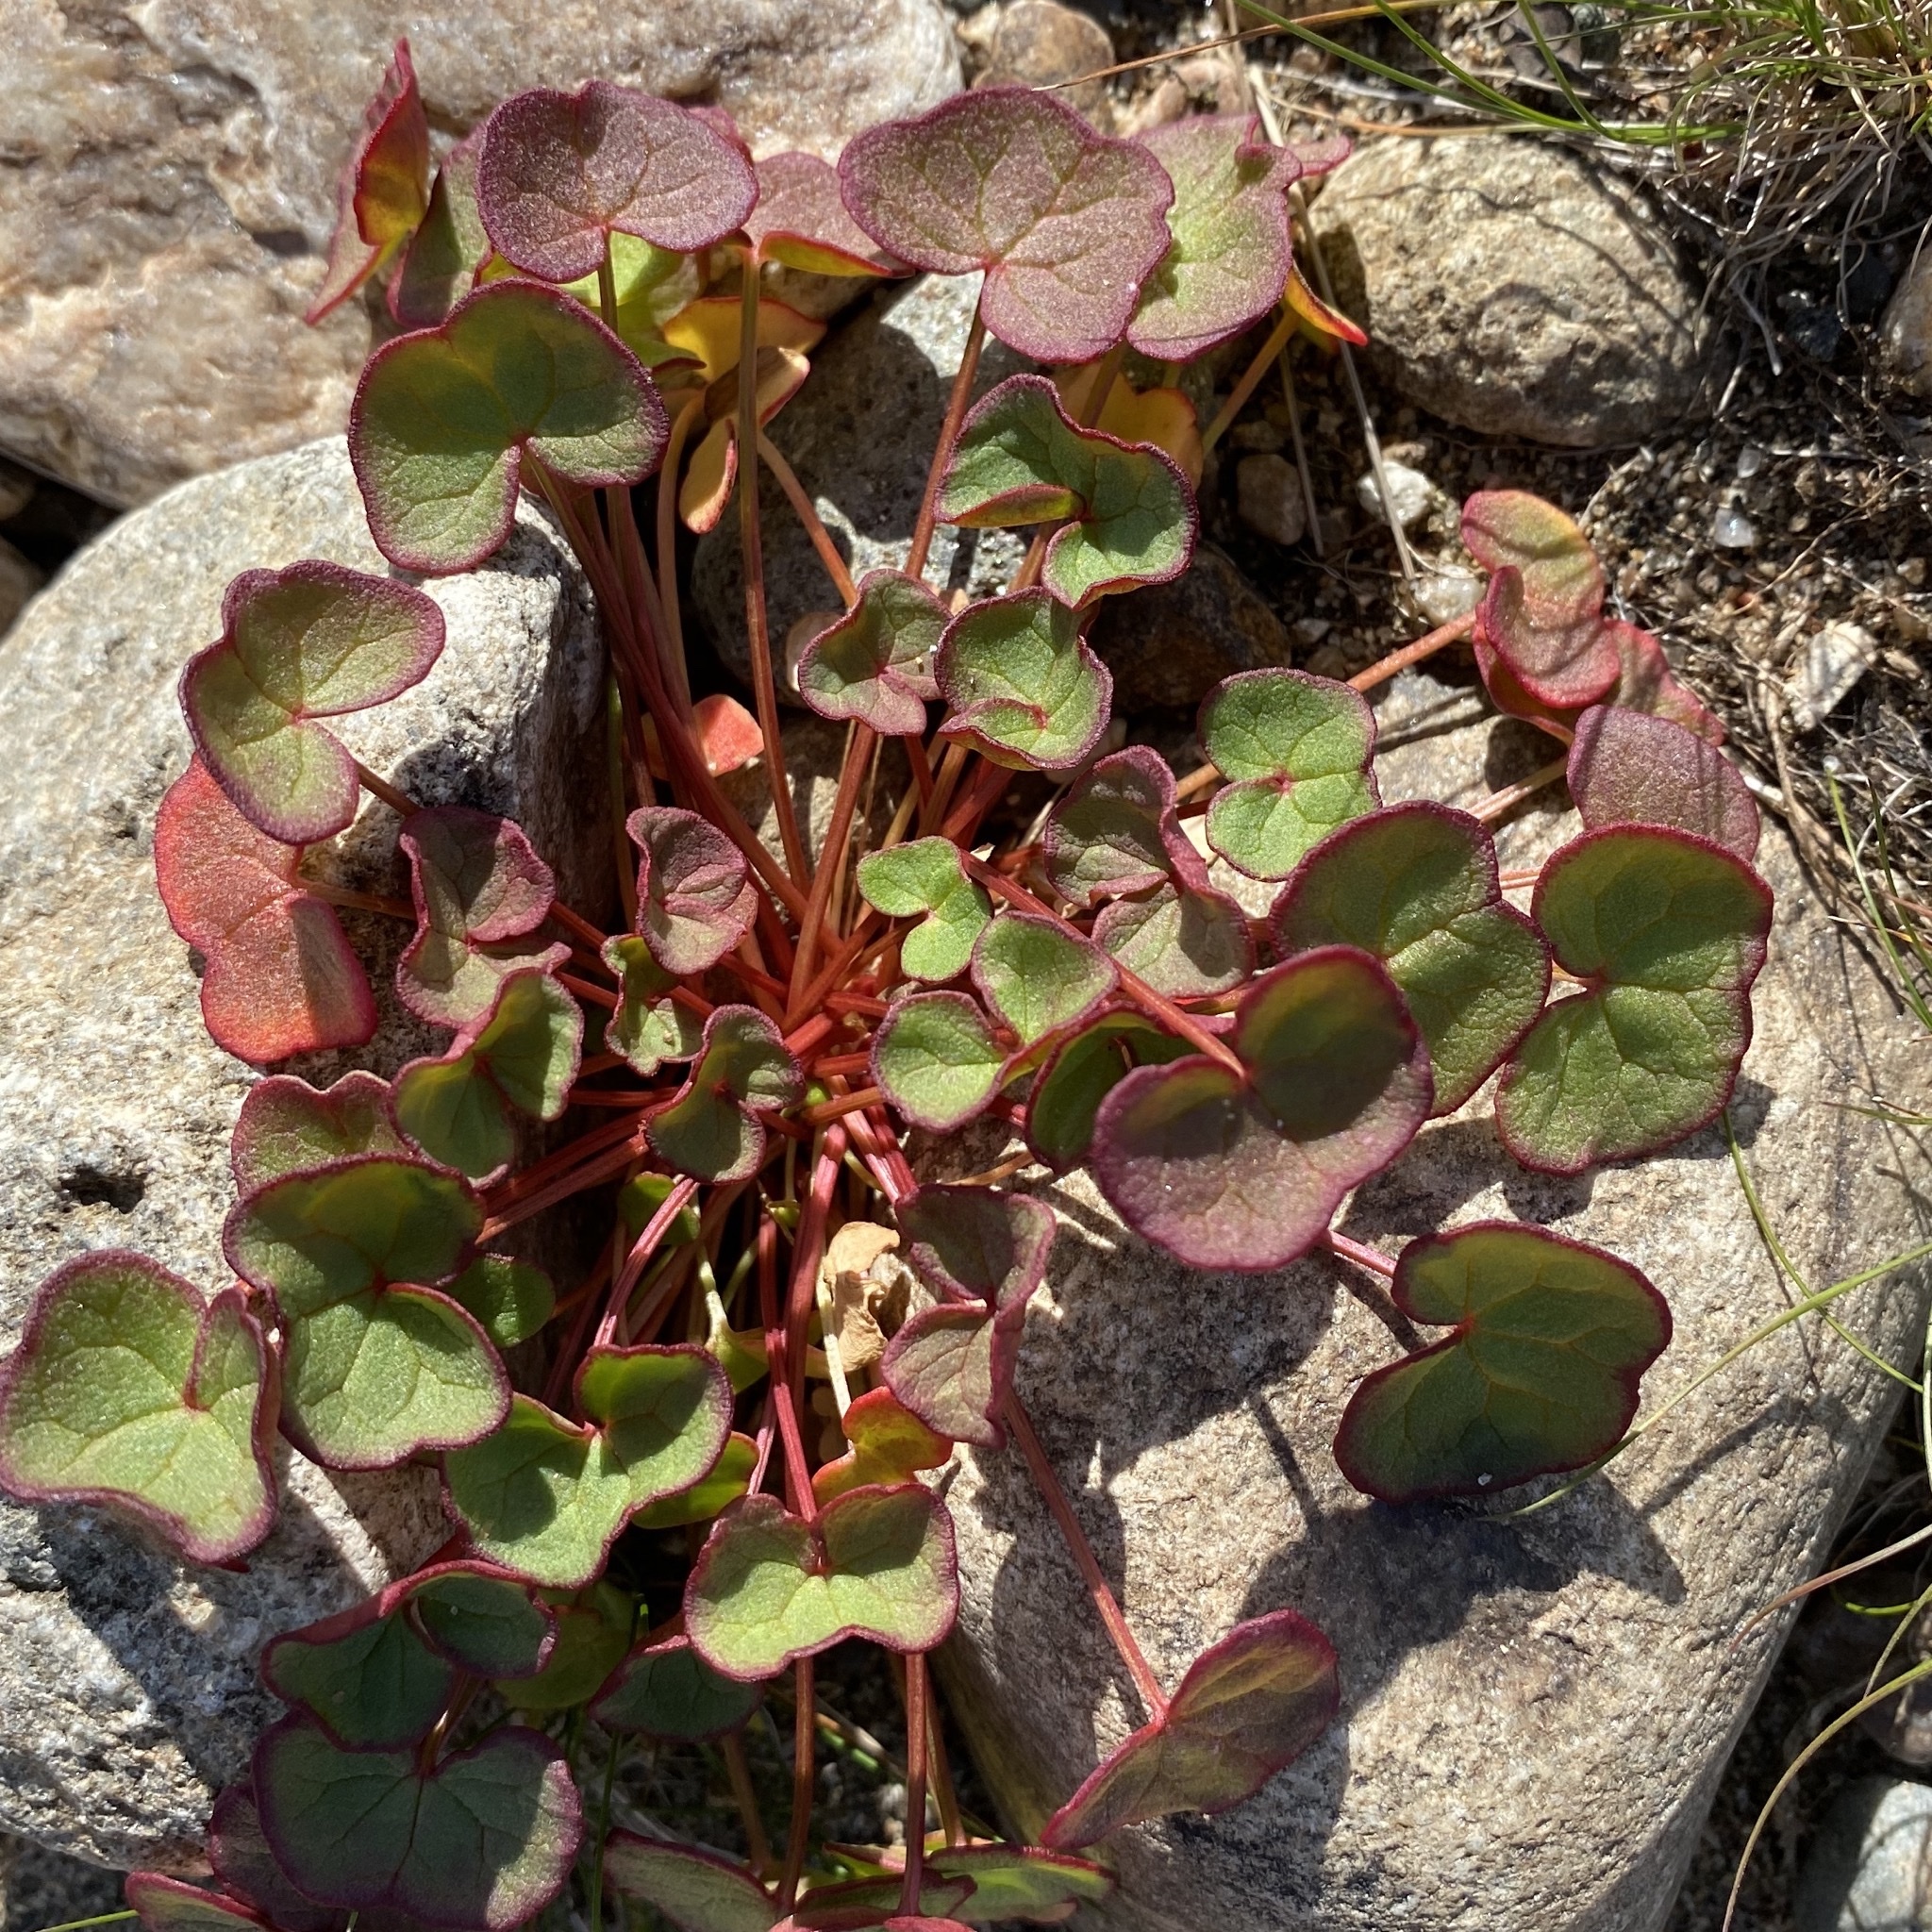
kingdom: Plantae
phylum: Tracheophyta
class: Magnoliopsida
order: Caryophyllales
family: Polygonaceae
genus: Oxyria
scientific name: Oxyria digyna
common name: Alpine mountain-sorrel
